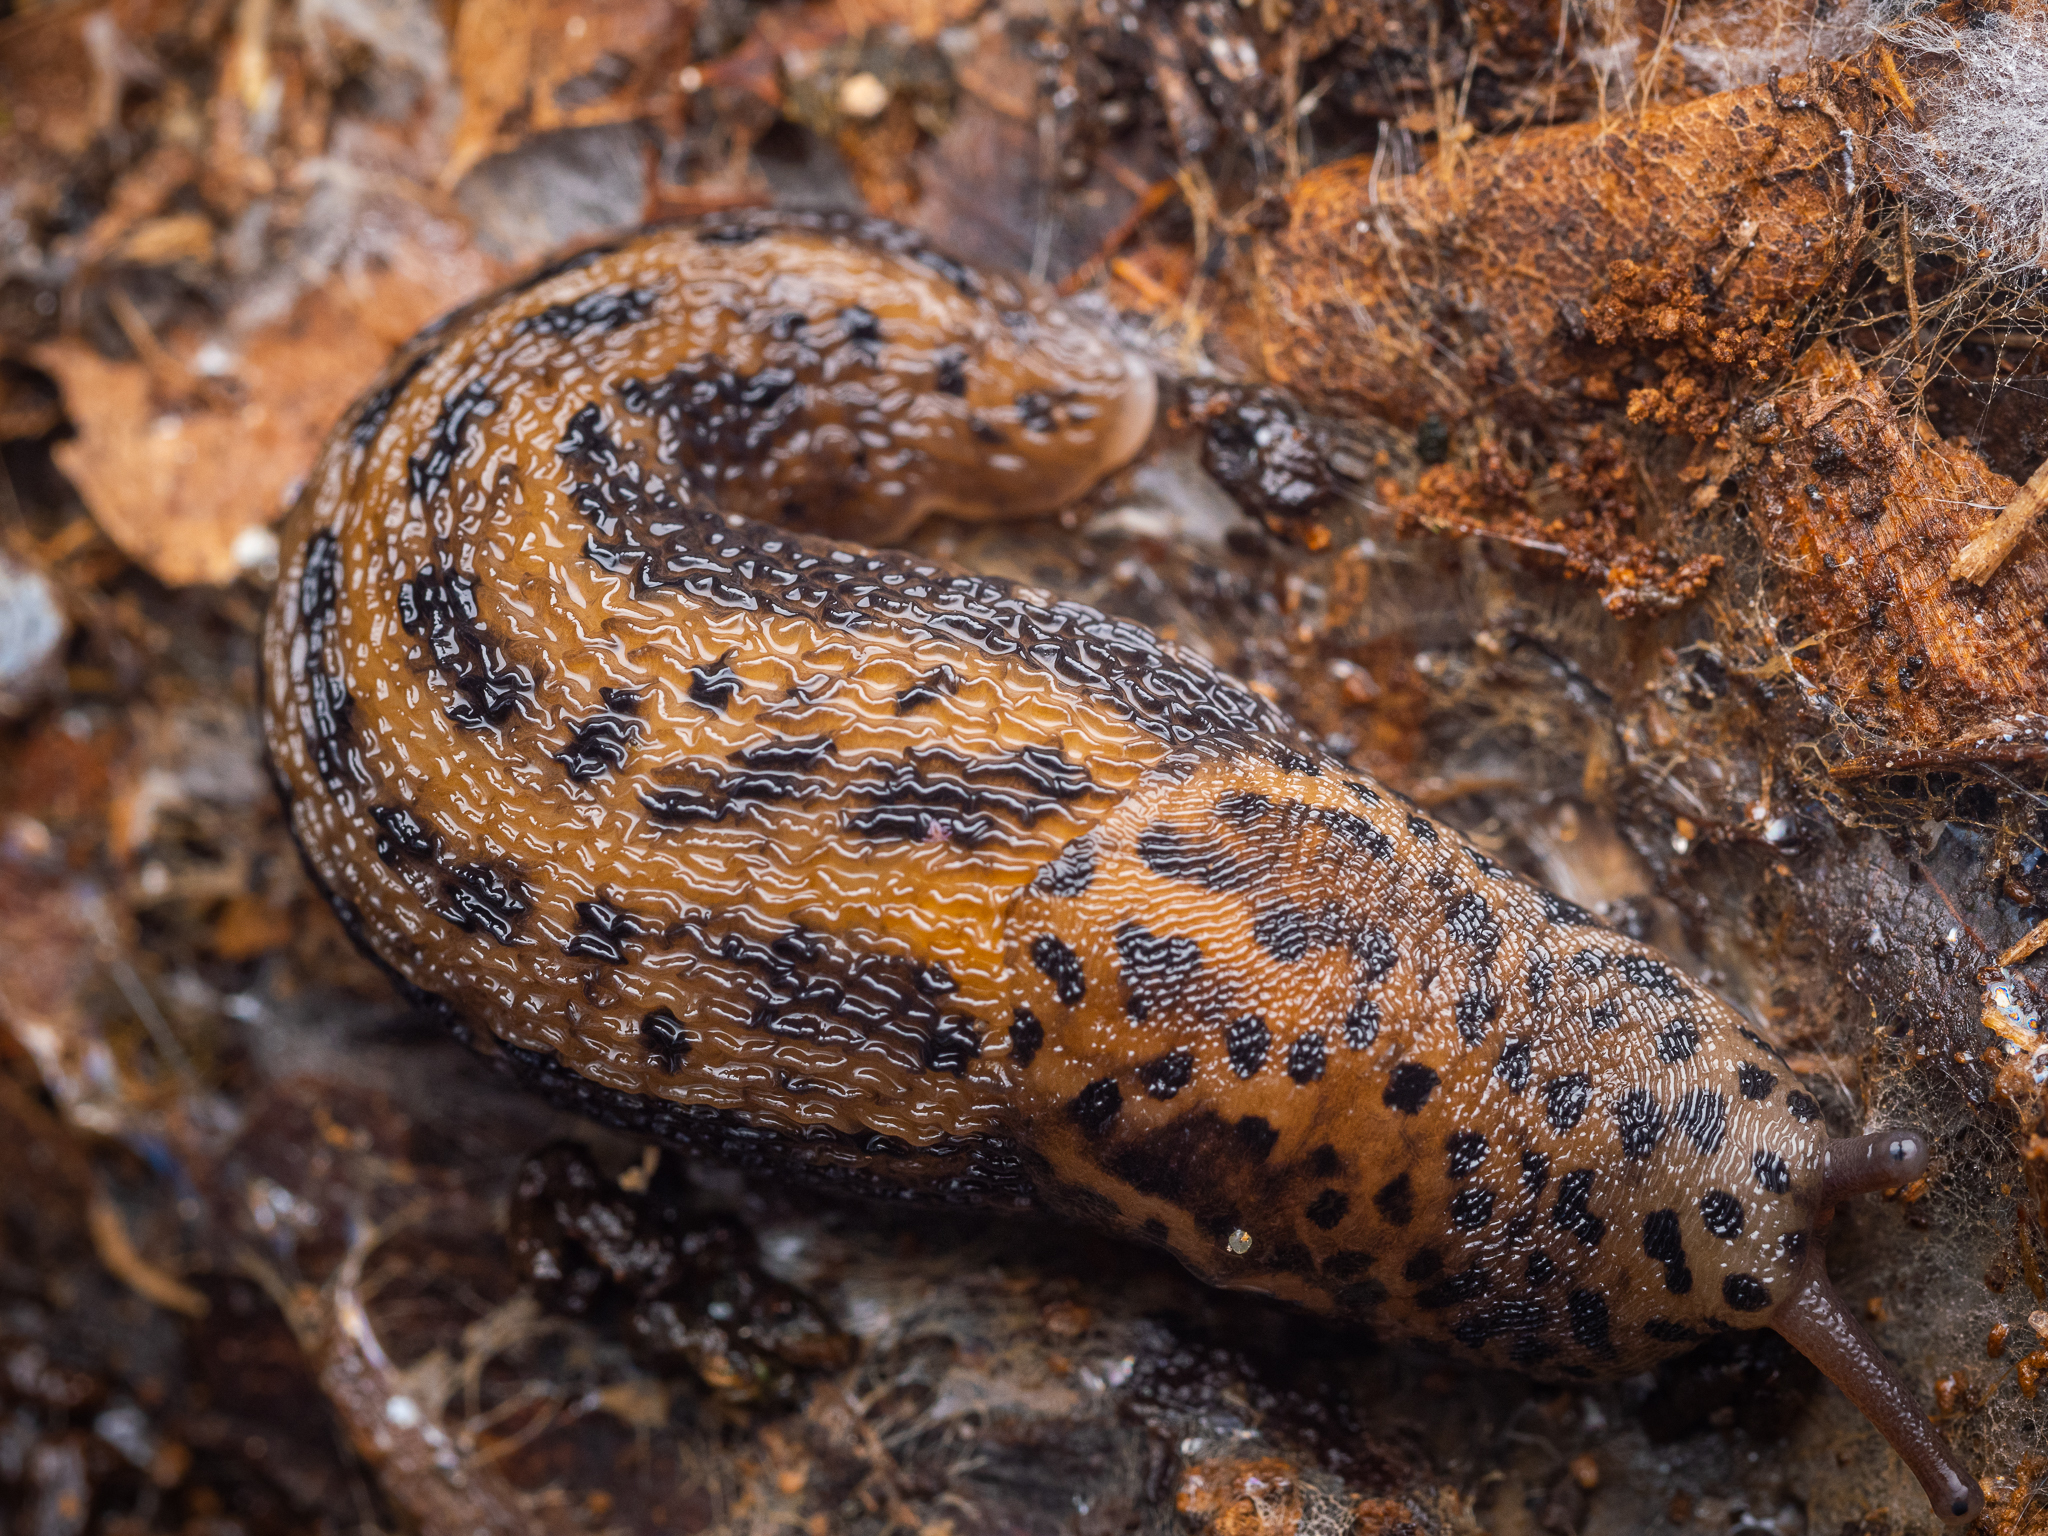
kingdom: Animalia
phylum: Mollusca
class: Gastropoda
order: Stylommatophora
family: Limacidae
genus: Limax
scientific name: Limax maximus
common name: Great grey slug
